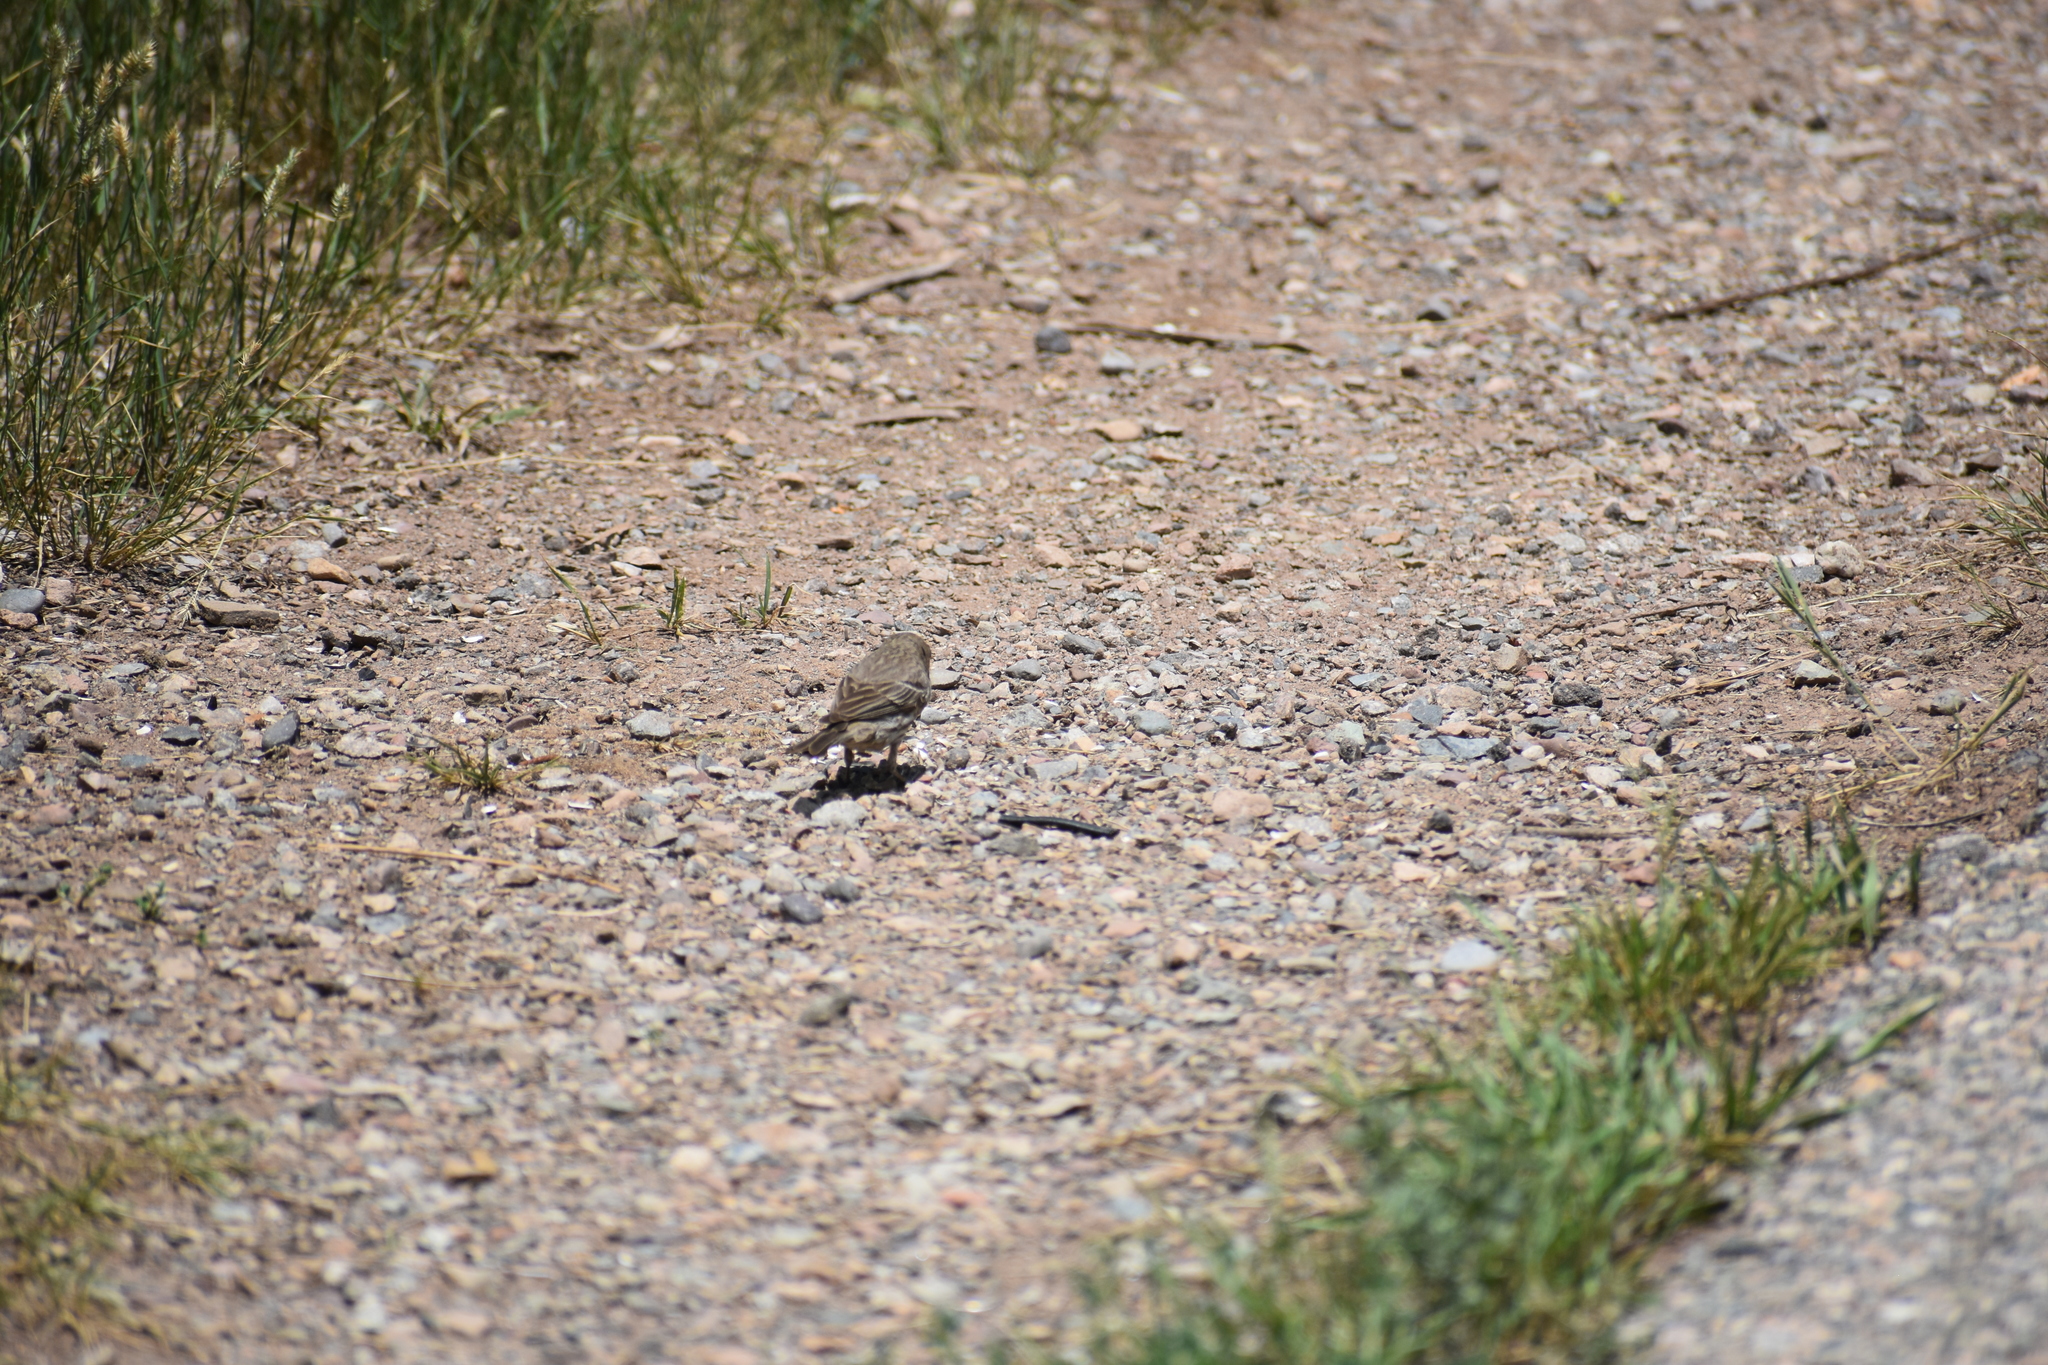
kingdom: Animalia
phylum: Chordata
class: Aves
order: Passeriformes
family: Fringillidae
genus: Haemorhous
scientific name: Haemorhous mexicanus
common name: House finch
